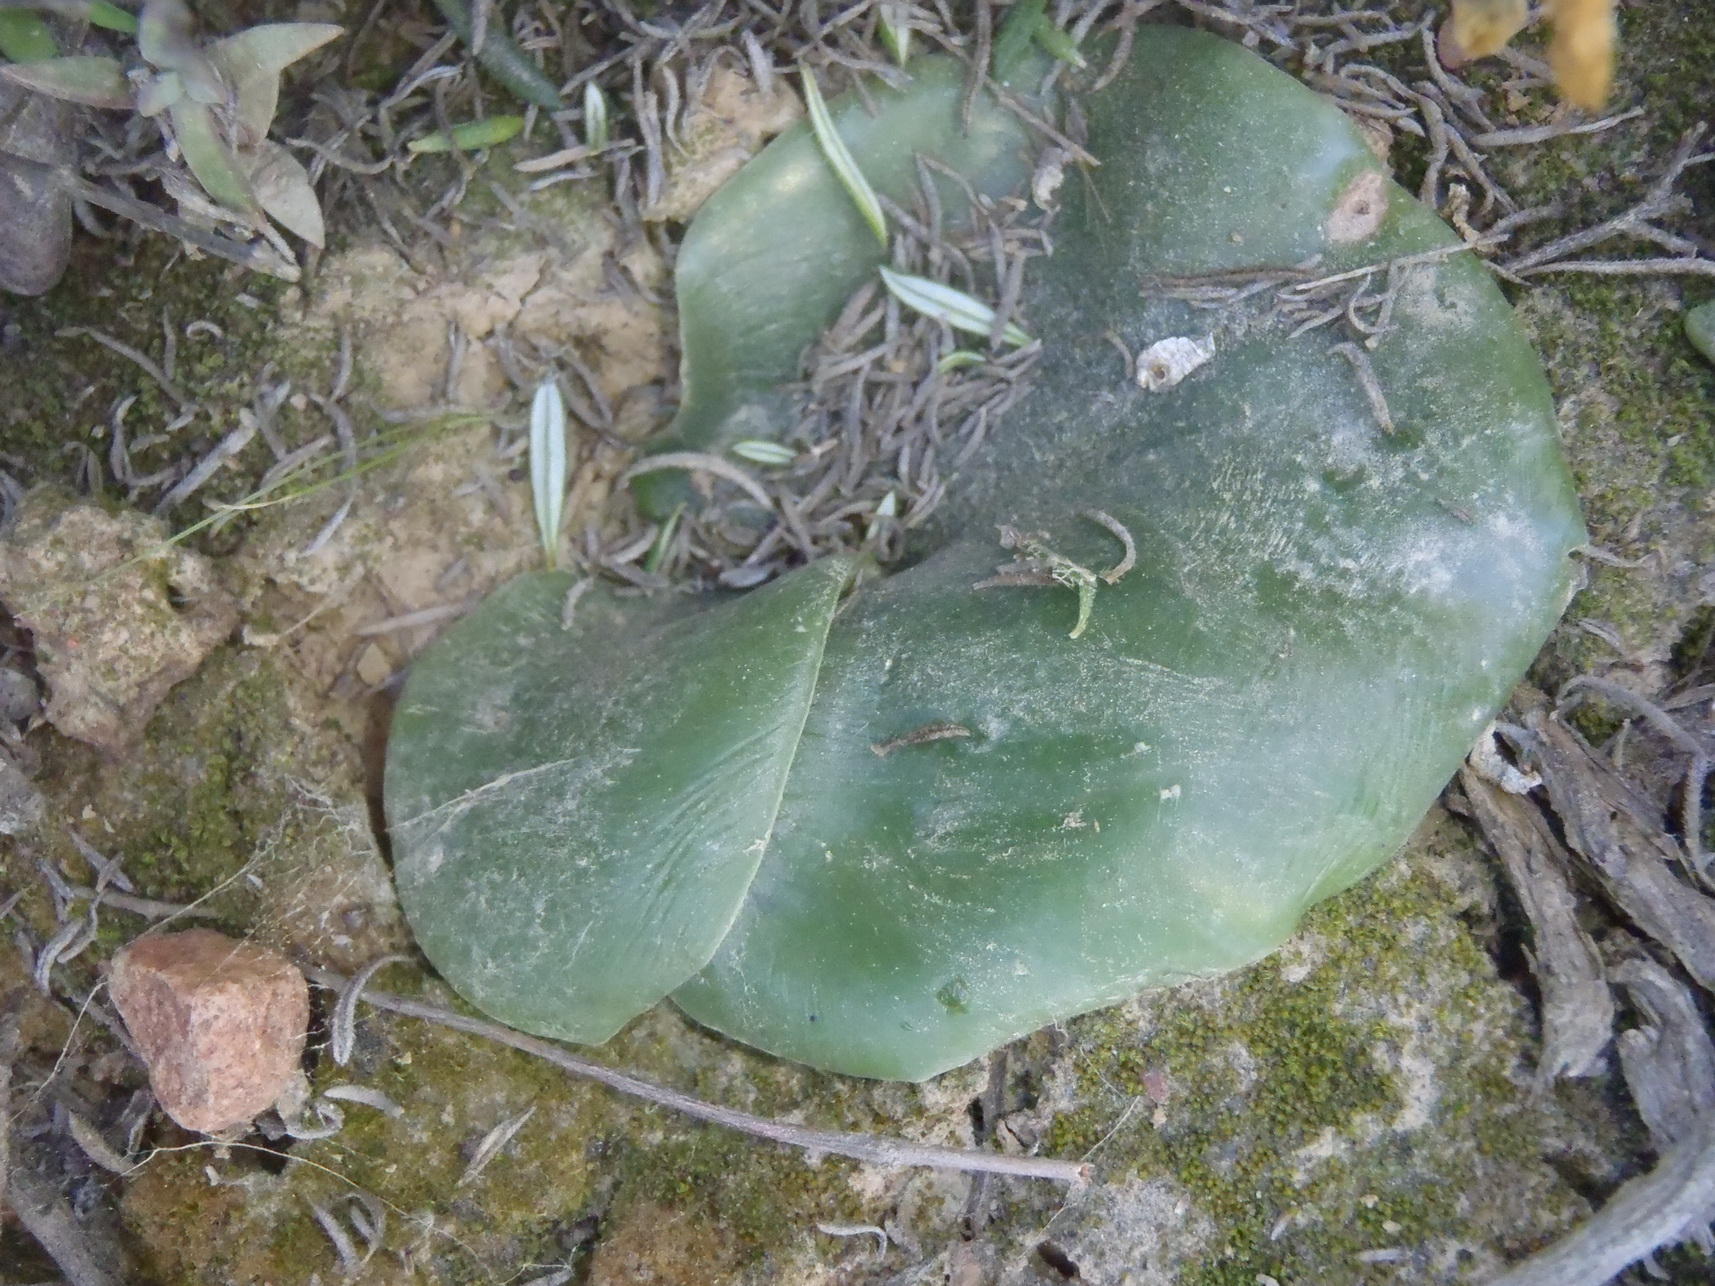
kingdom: Plantae
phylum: Tracheophyta
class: Liliopsida
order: Asparagales
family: Orchidaceae
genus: Holothrix
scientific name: Holothrix secunda
